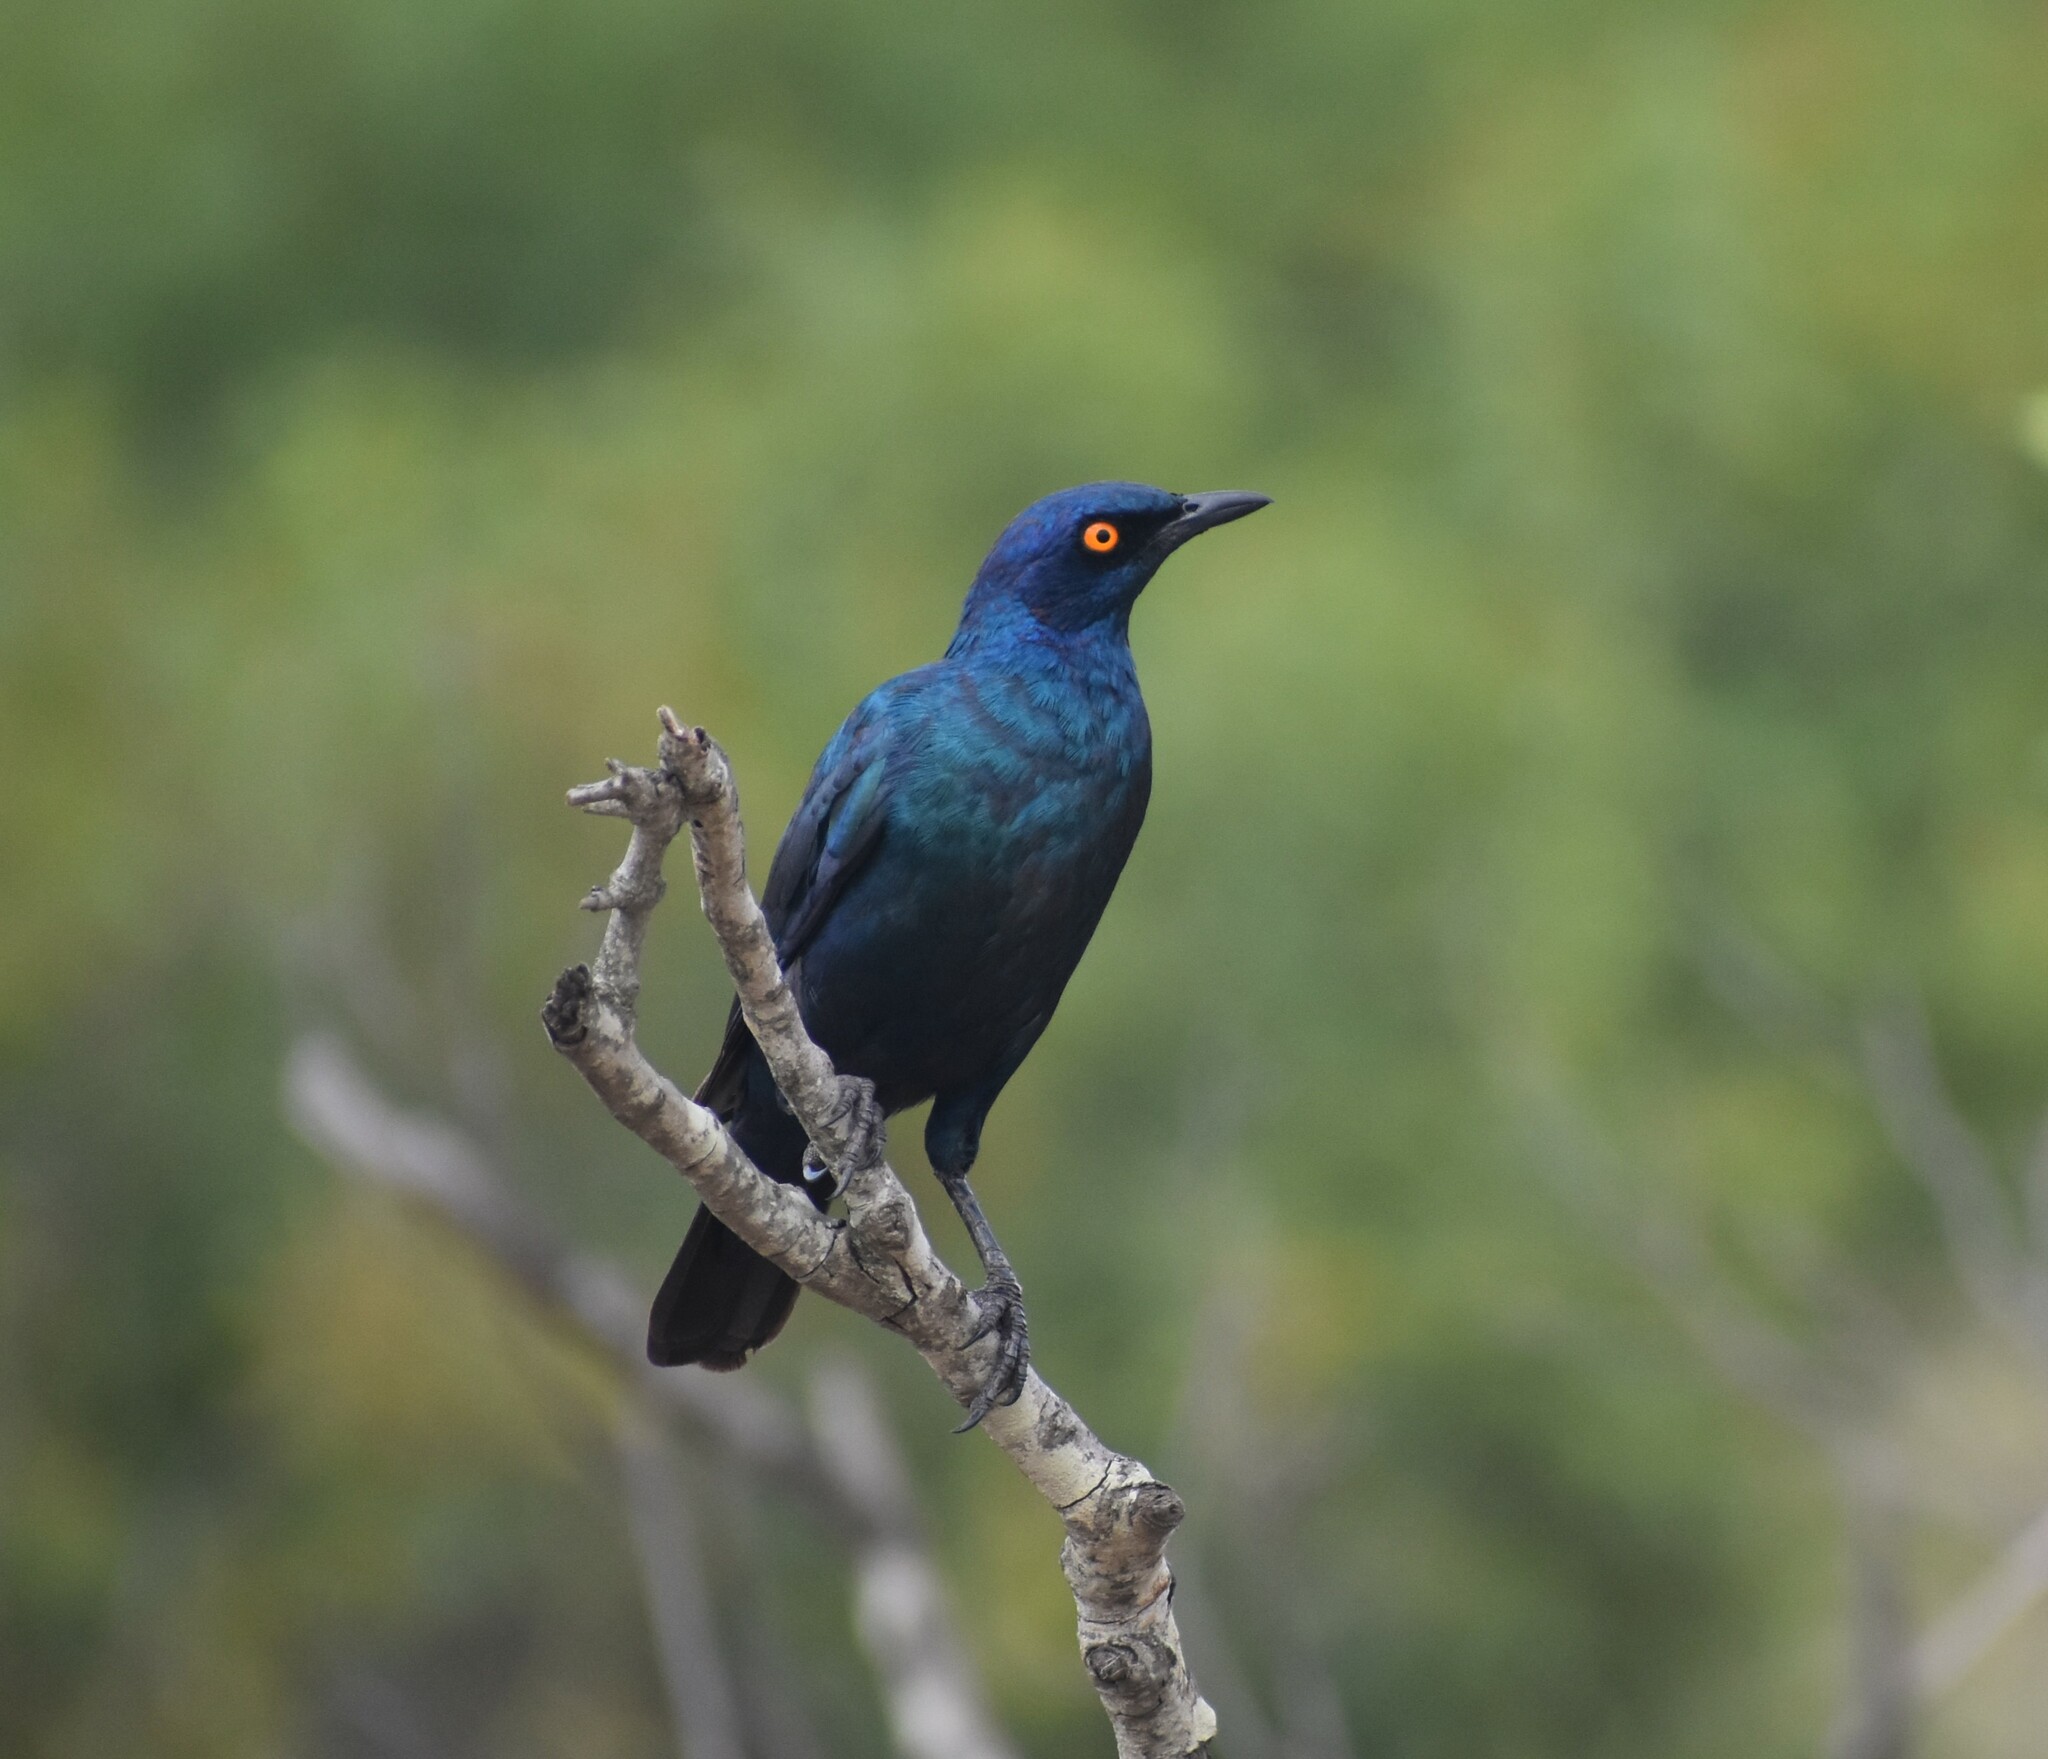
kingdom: Animalia
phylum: Chordata
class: Aves
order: Passeriformes
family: Sturnidae
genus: Lamprotornis
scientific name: Lamprotornis nitens
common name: Cape starling
